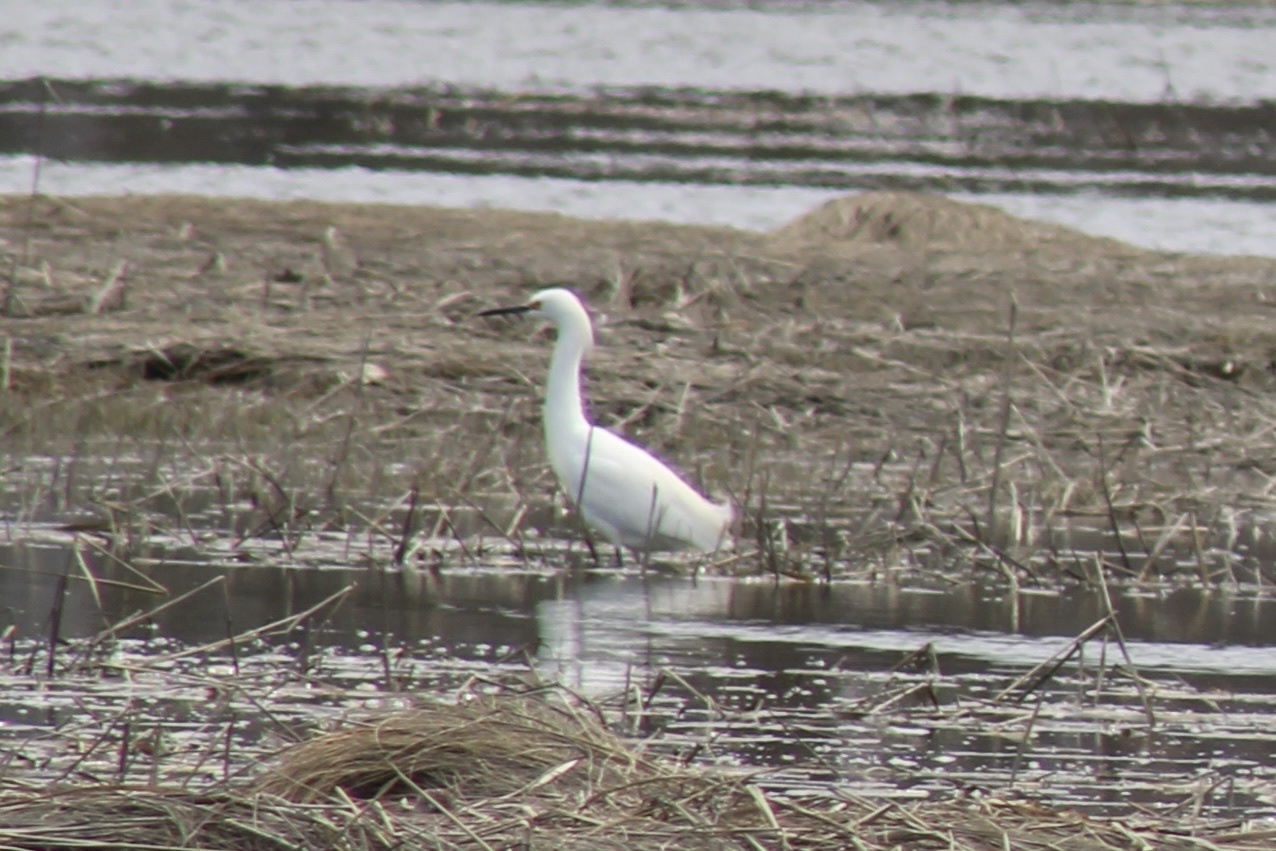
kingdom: Animalia
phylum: Chordata
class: Aves
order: Pelecaniformes
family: Ardeidae
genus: Egretta
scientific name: Egretta thula
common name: Snowy egret
